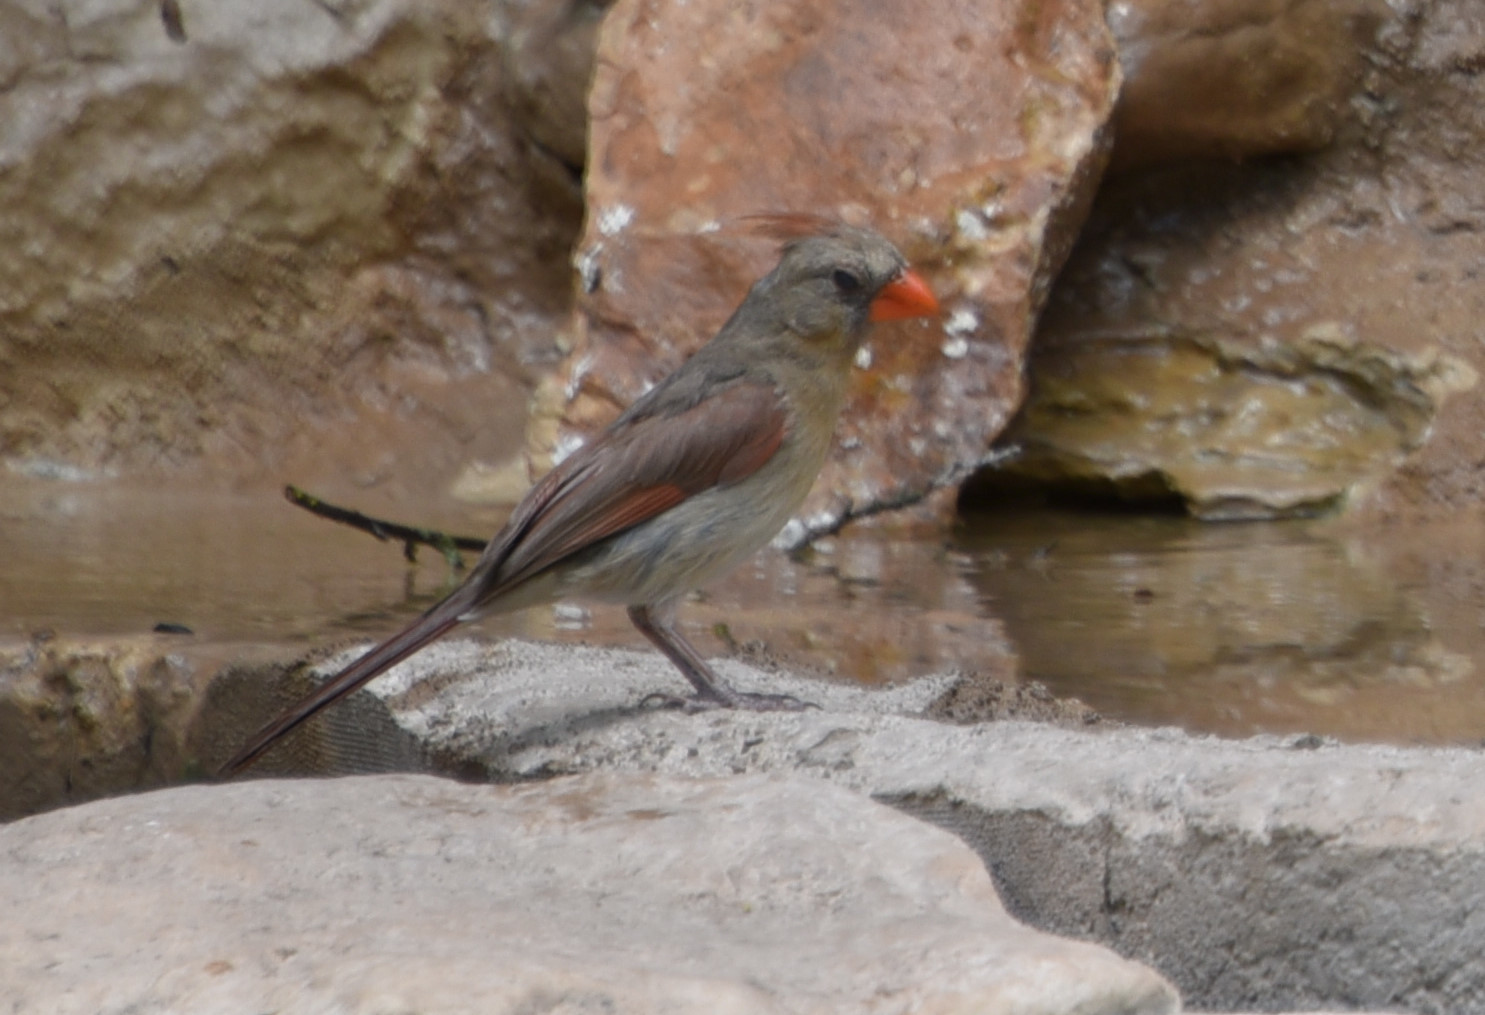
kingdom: Animalia
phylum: Chordata
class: Aves
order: Passeriformes
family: Cardinalidae
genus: Cardinalis
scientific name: Cardinalis cardinalis
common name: Northern cardinal
